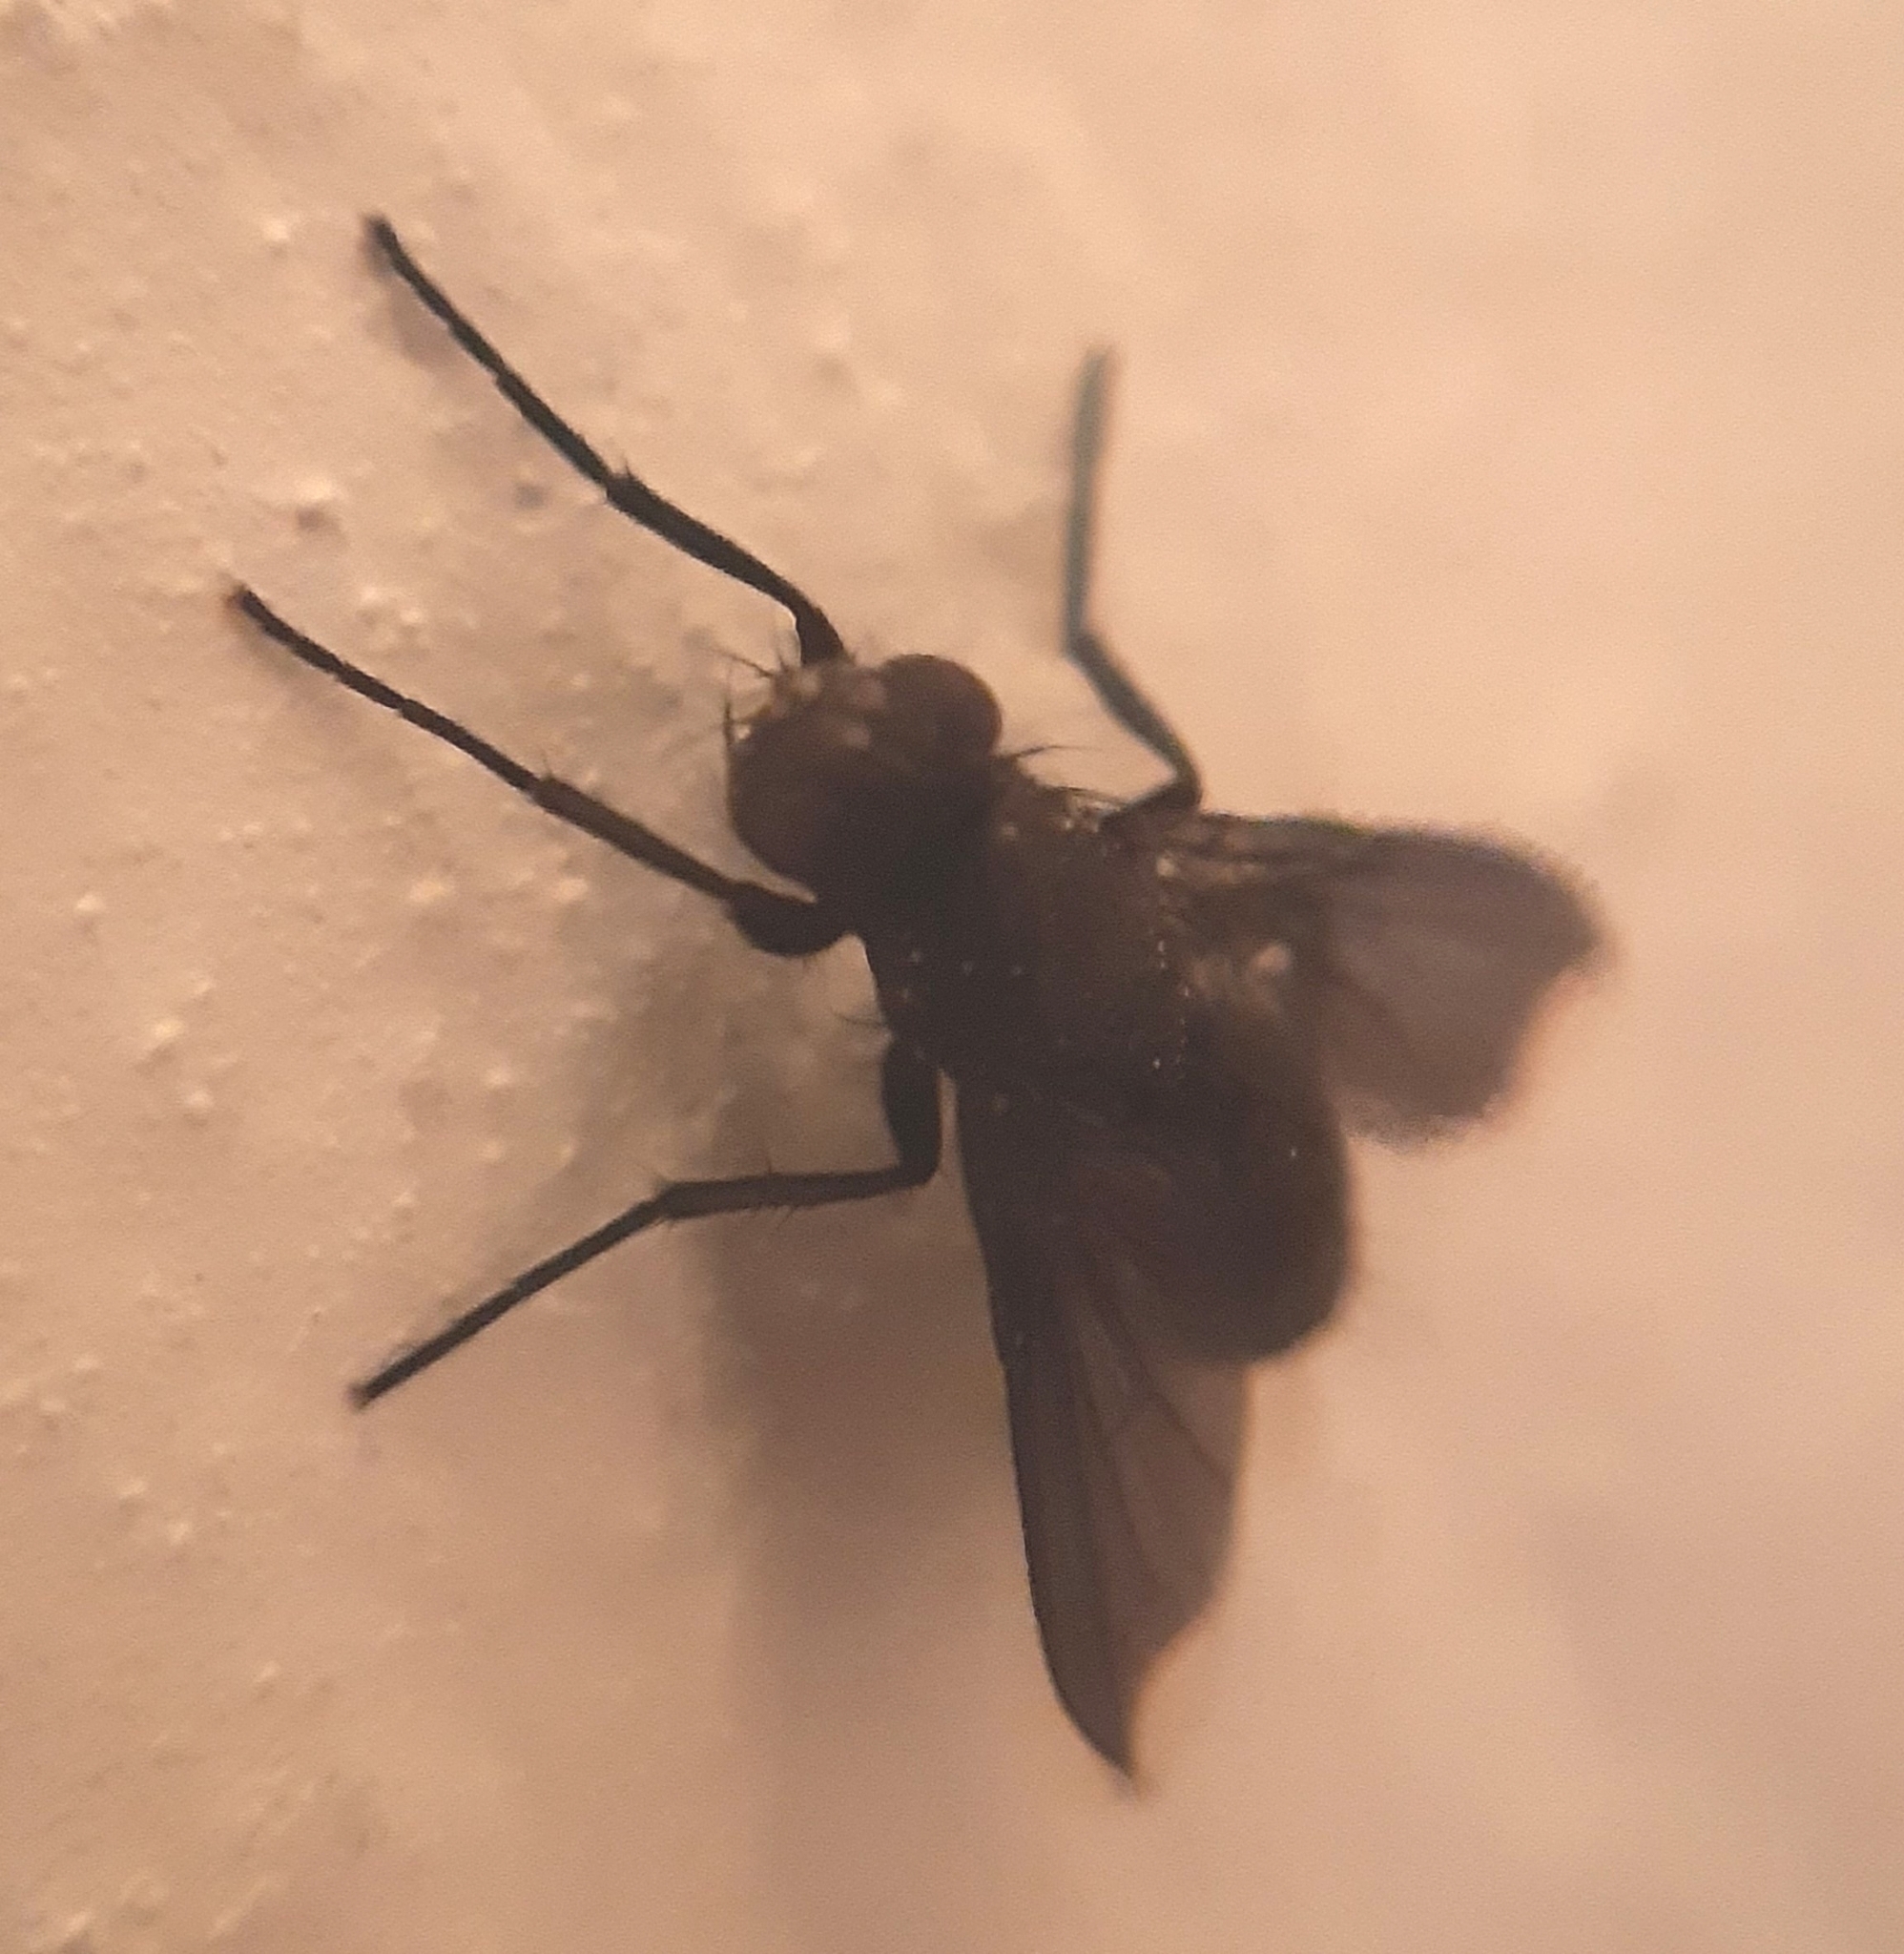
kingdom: Animalia
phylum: Arthropoda
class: Insecta
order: Diptera
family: Calliphoridae
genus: Melanophora
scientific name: Melanophora roralis
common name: Smoky-winged woodlouse-fly
